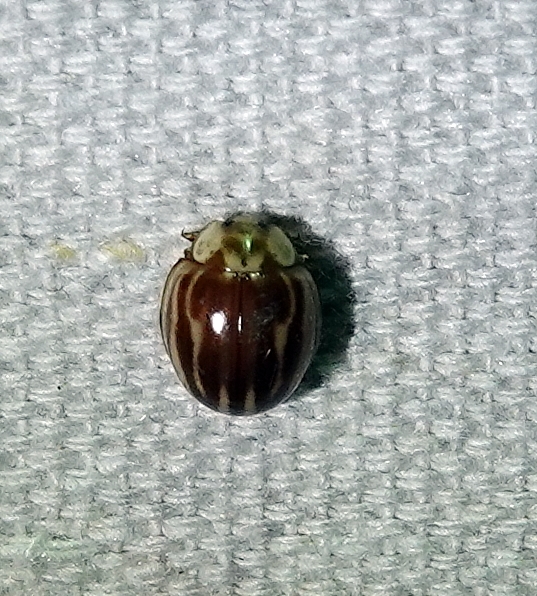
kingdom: Animalia
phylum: Arthropoda
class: Insecta
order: Coleoptera
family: Coccinellidae
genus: Myzia
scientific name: Myzia interrupta
